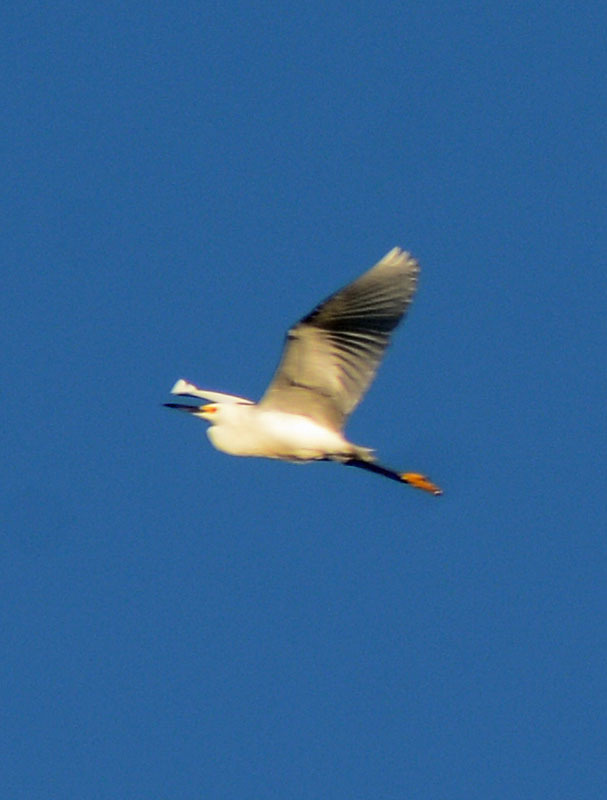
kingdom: Animalia
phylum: Chordata
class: Aves
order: Pelecaniformes
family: Ardeidae
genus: Egretta
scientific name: Egretta thula
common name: Snowy egret
